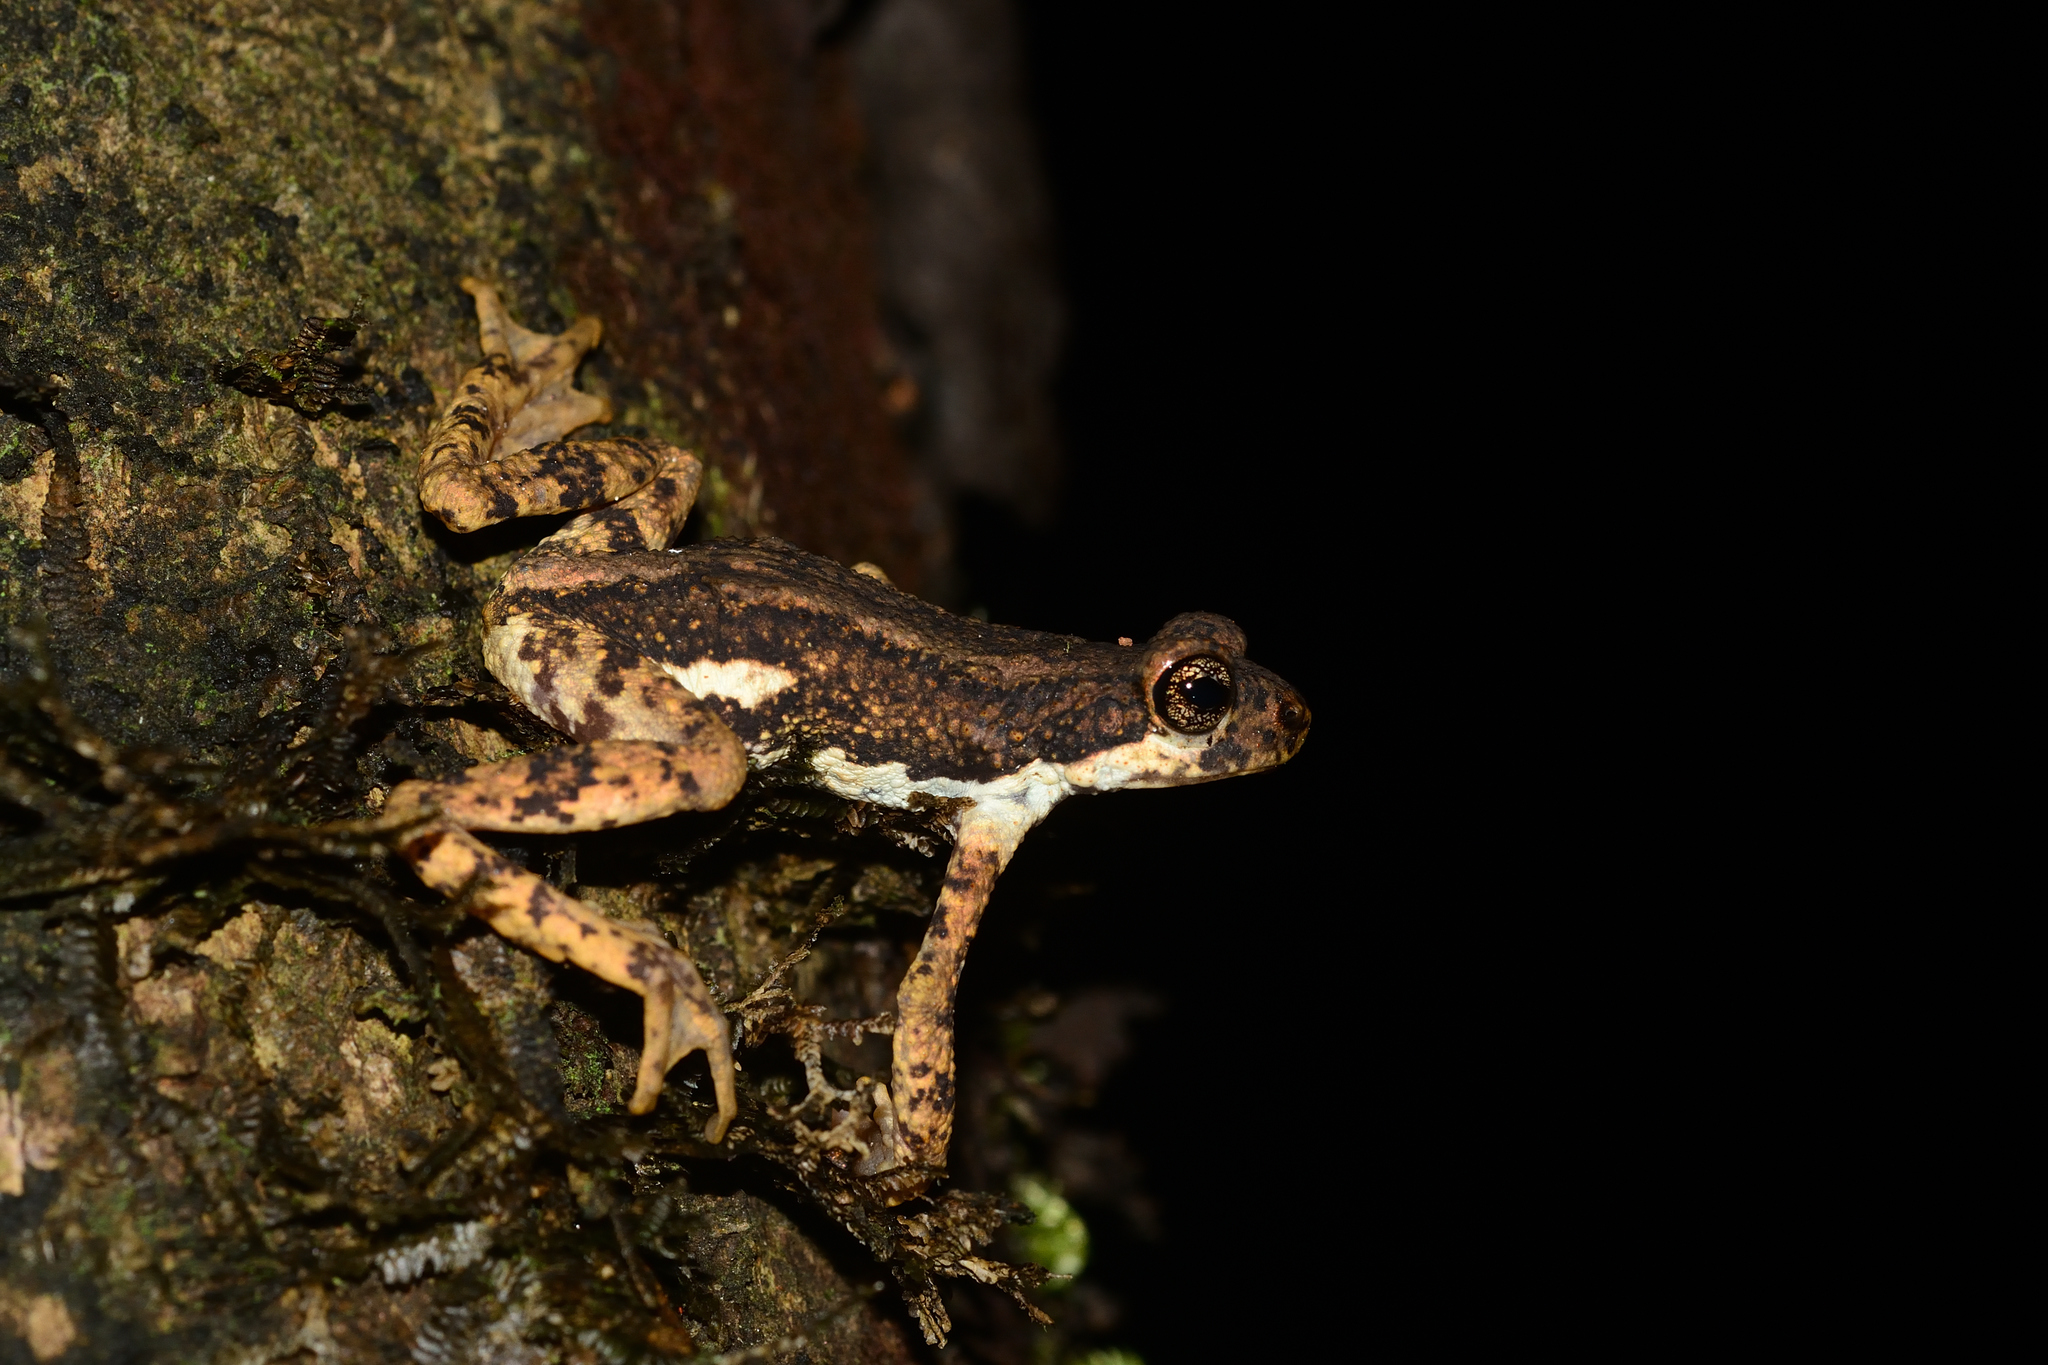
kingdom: Animalia
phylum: Chordata
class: Amphibia
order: Anura
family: Bufonidae
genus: Pedostibes
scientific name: Pedostibes tuberculosus
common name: Malabar tree toad
